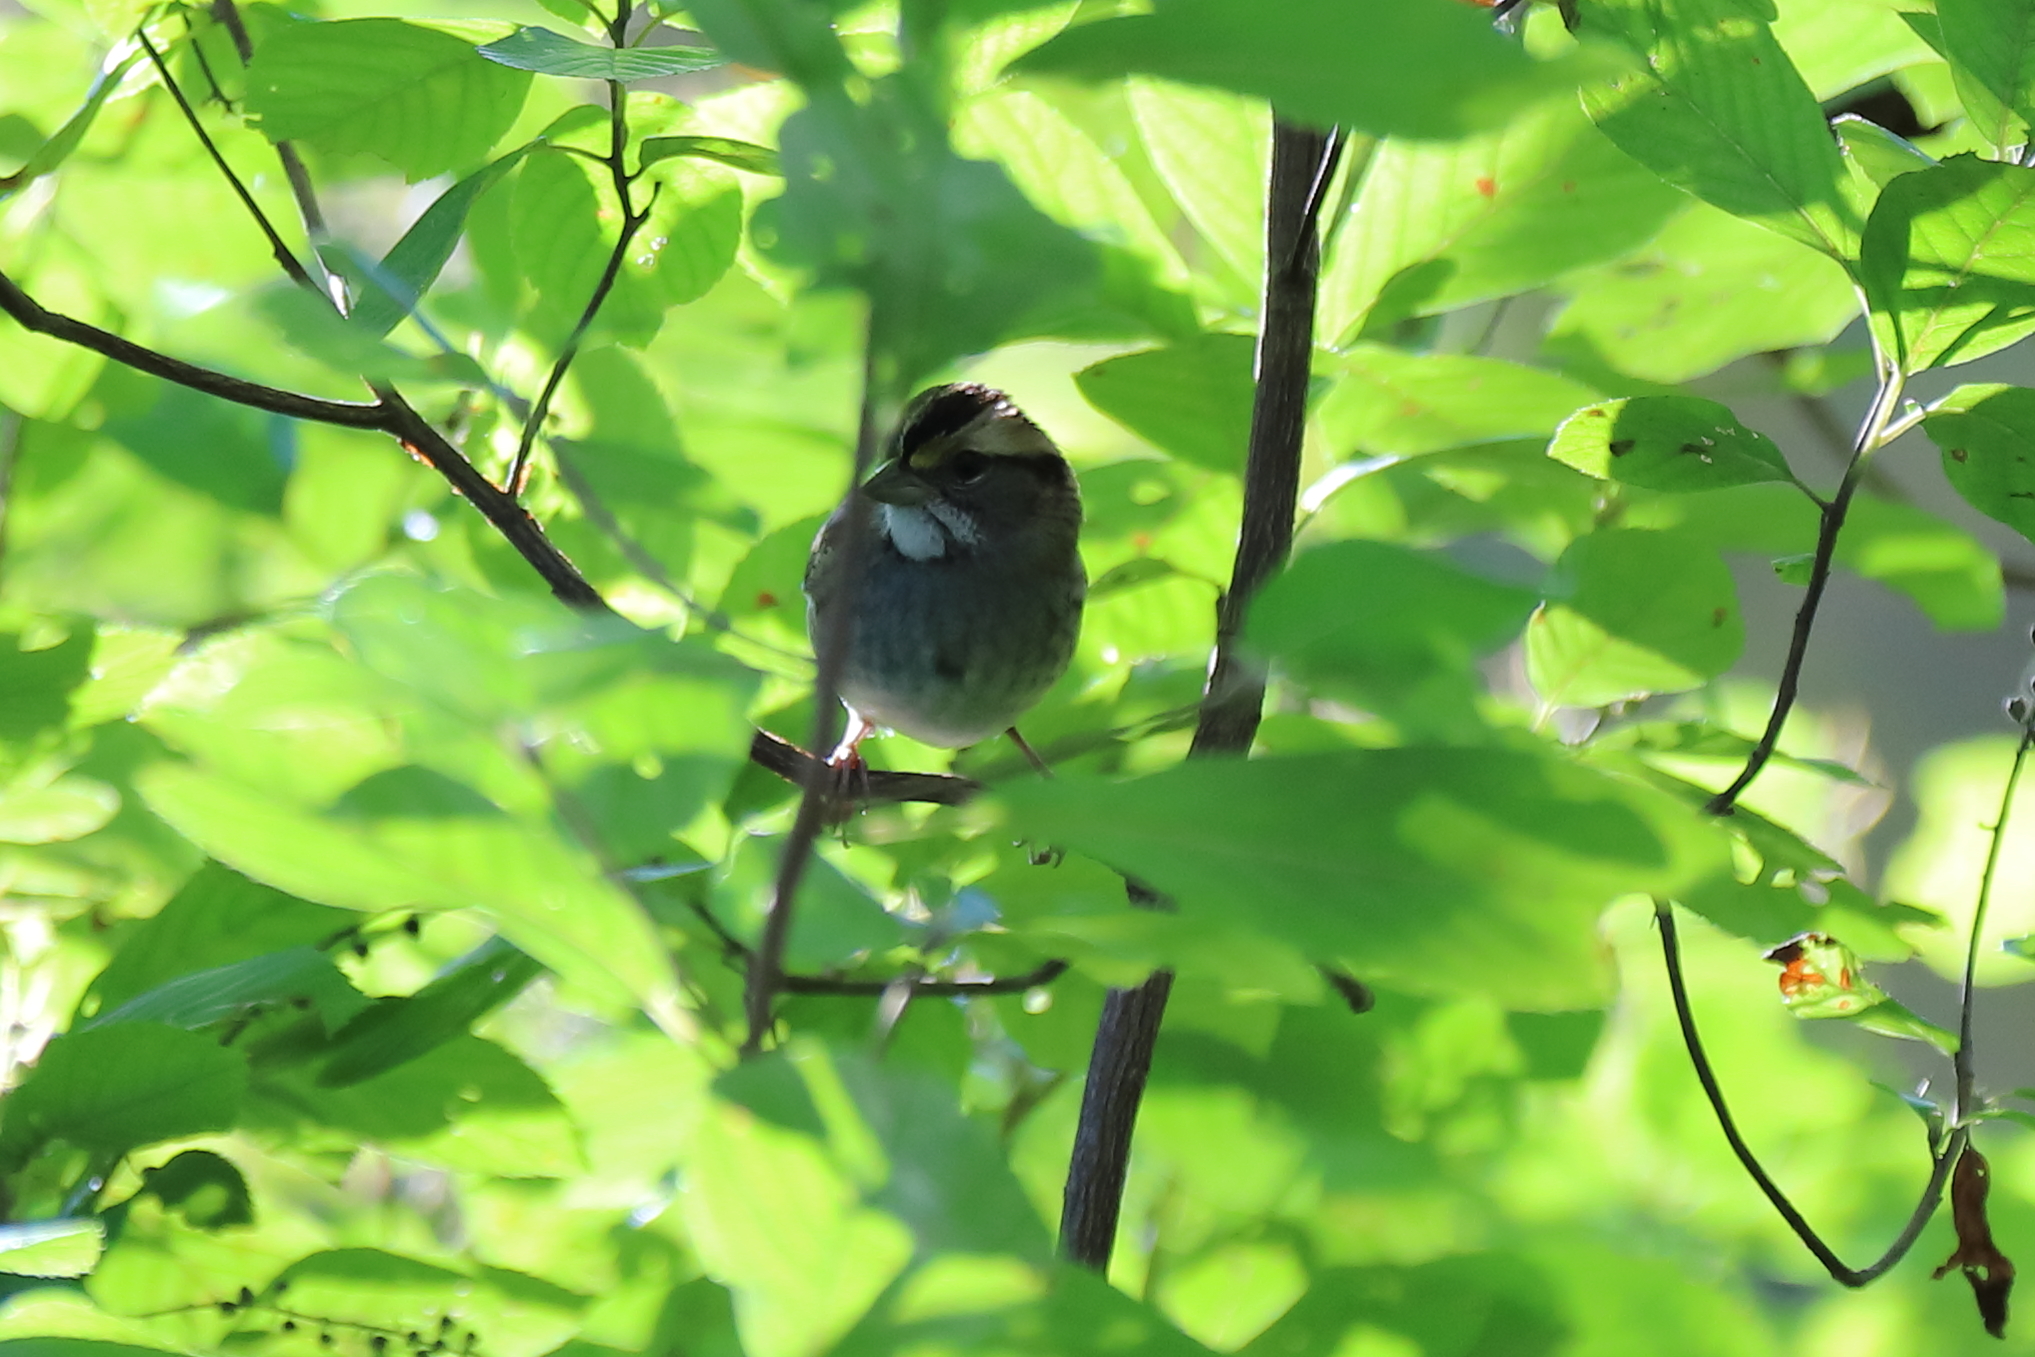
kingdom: Animalia
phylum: Chordata
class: Aves
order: Passeriformes
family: Passerellidae
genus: Zonotrichia
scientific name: Zonotrichia albicollis
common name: White-throated sparrow
